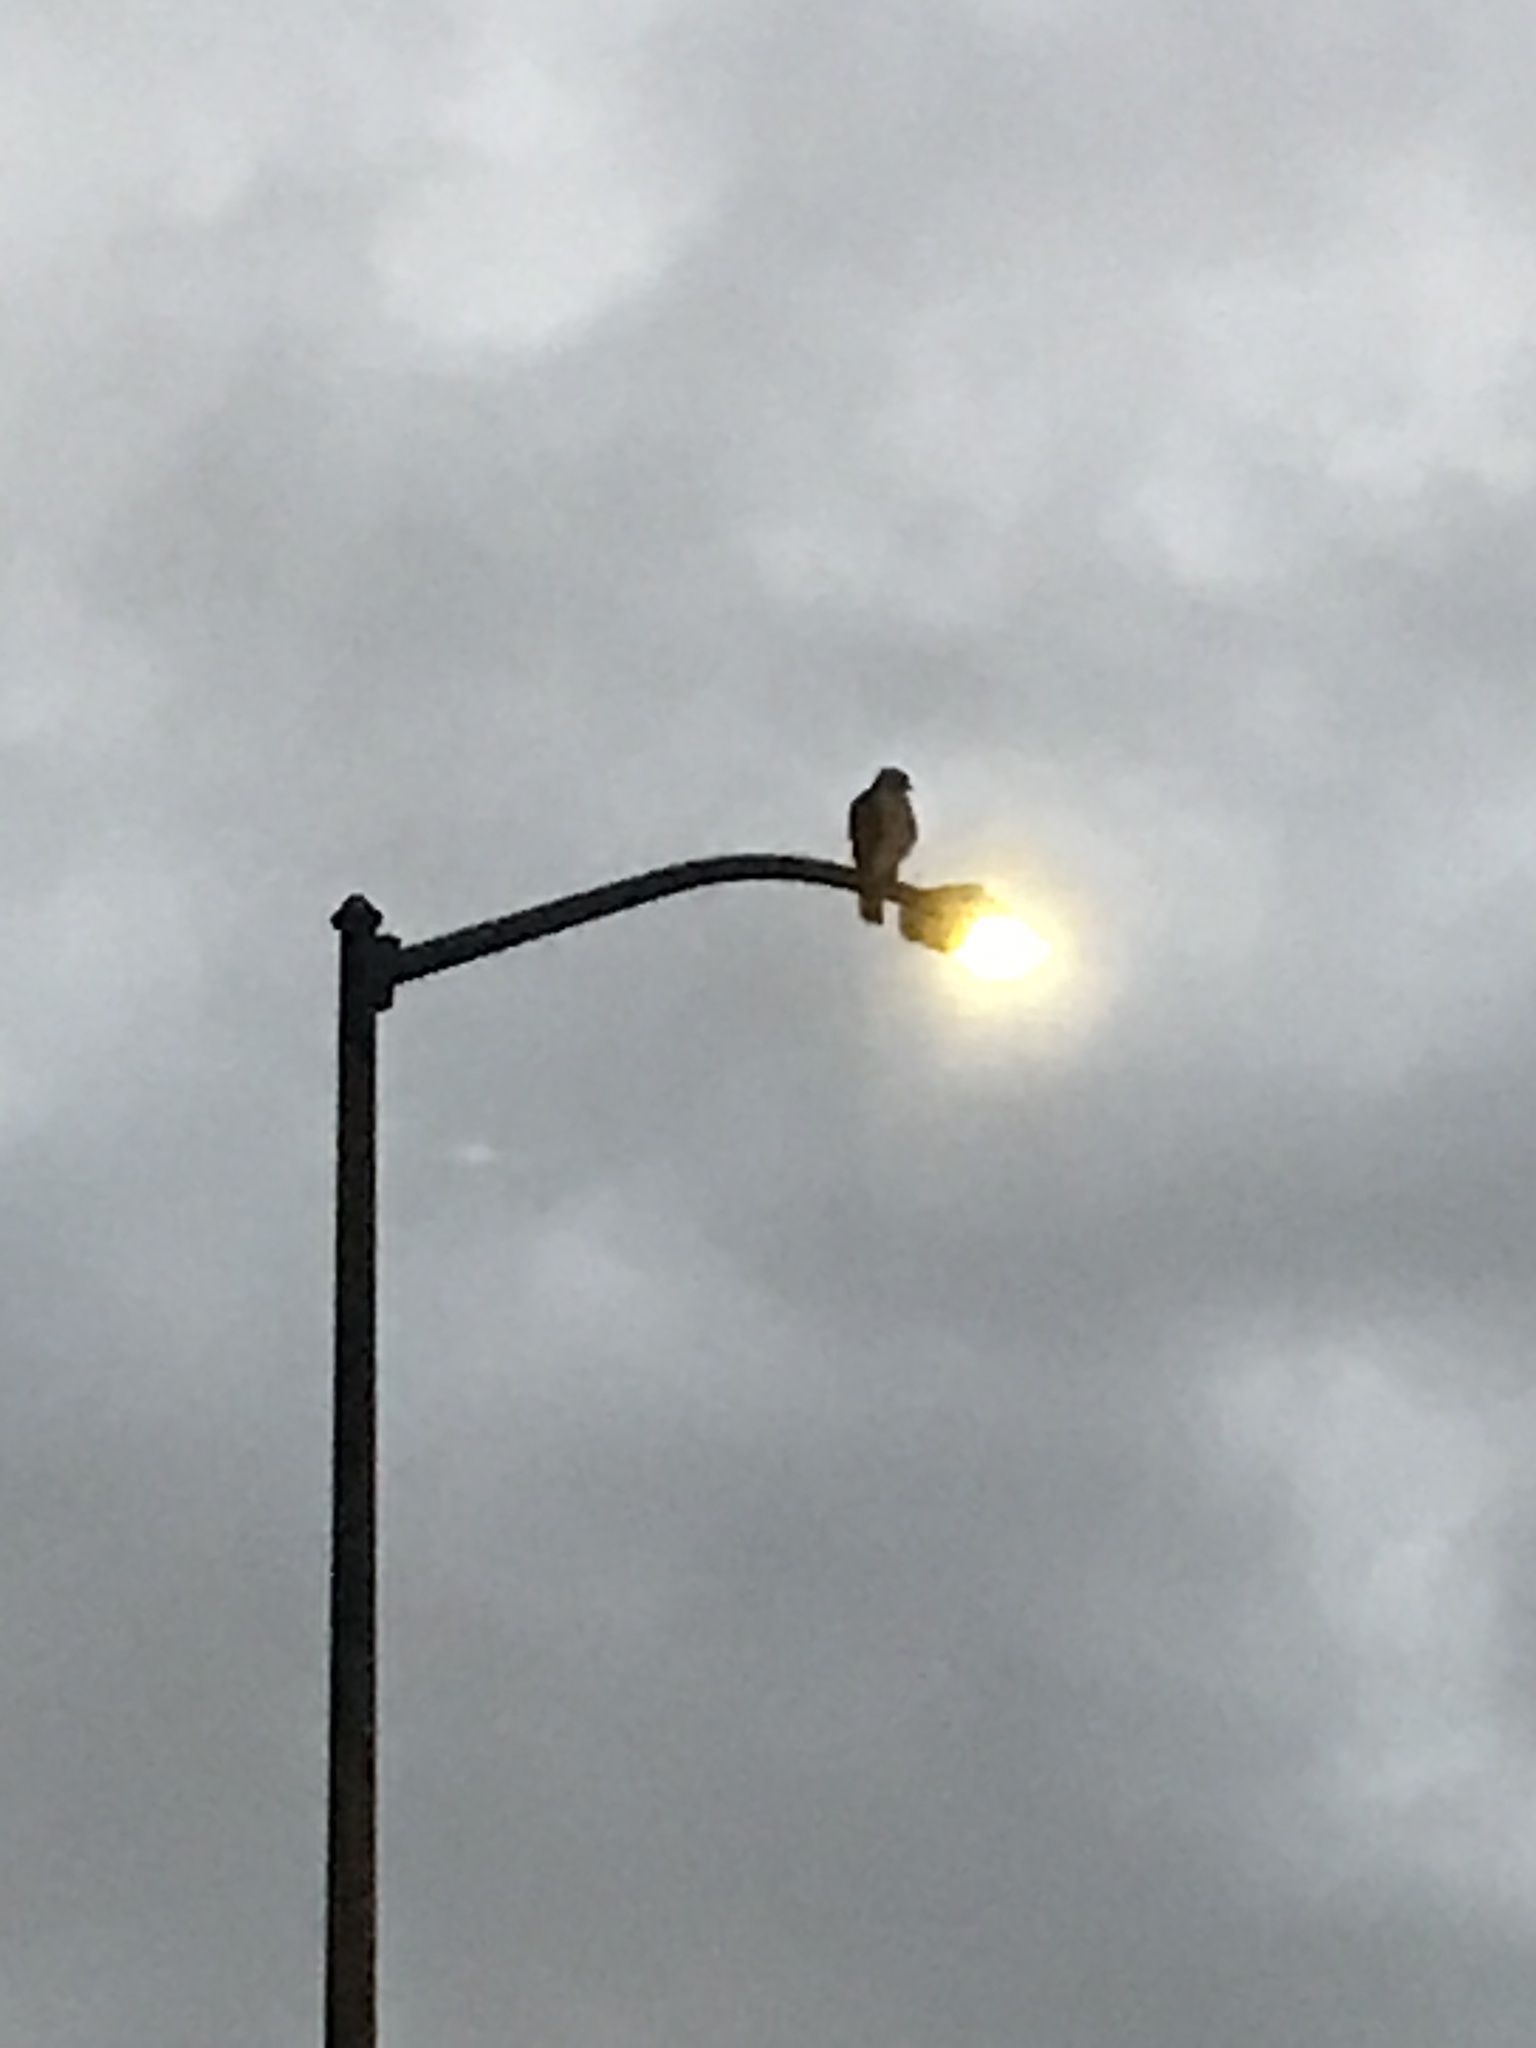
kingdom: Animalia
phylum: Chordata
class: Aves
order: Accipitriformes
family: Accipitridae
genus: Buteo
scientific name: Buteo jamaicensis
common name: Red-tailed hawk
